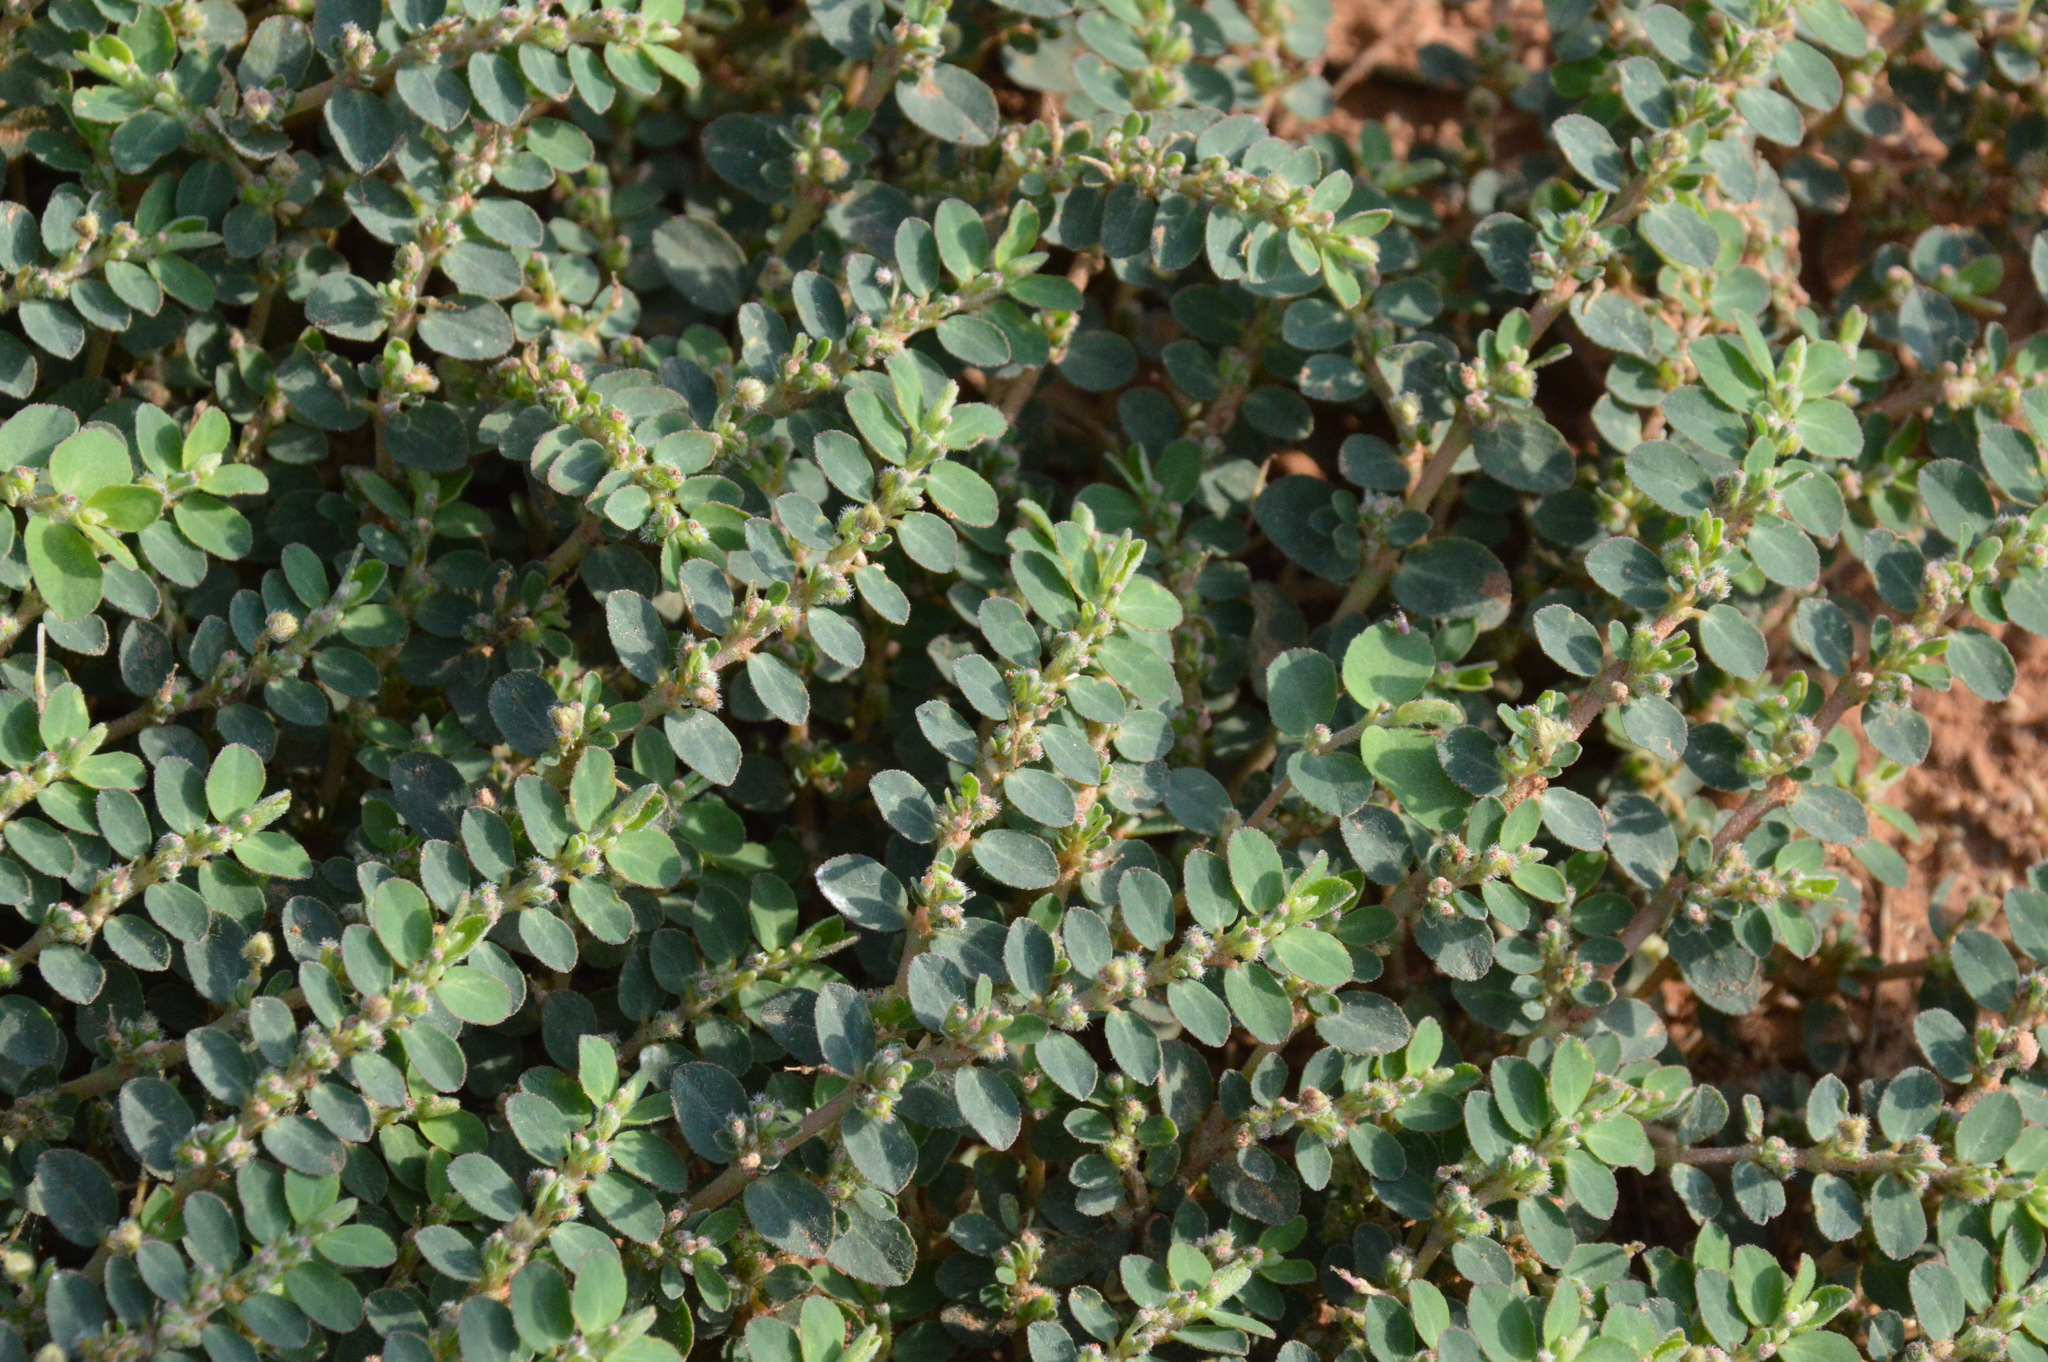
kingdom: Plantae
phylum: Tracheophyta
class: Magnoliopsida
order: Malpighiales
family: Euphorbiaceae
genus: Euphorbia
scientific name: Euphorbia prostrata
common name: Prostrate sandmat
